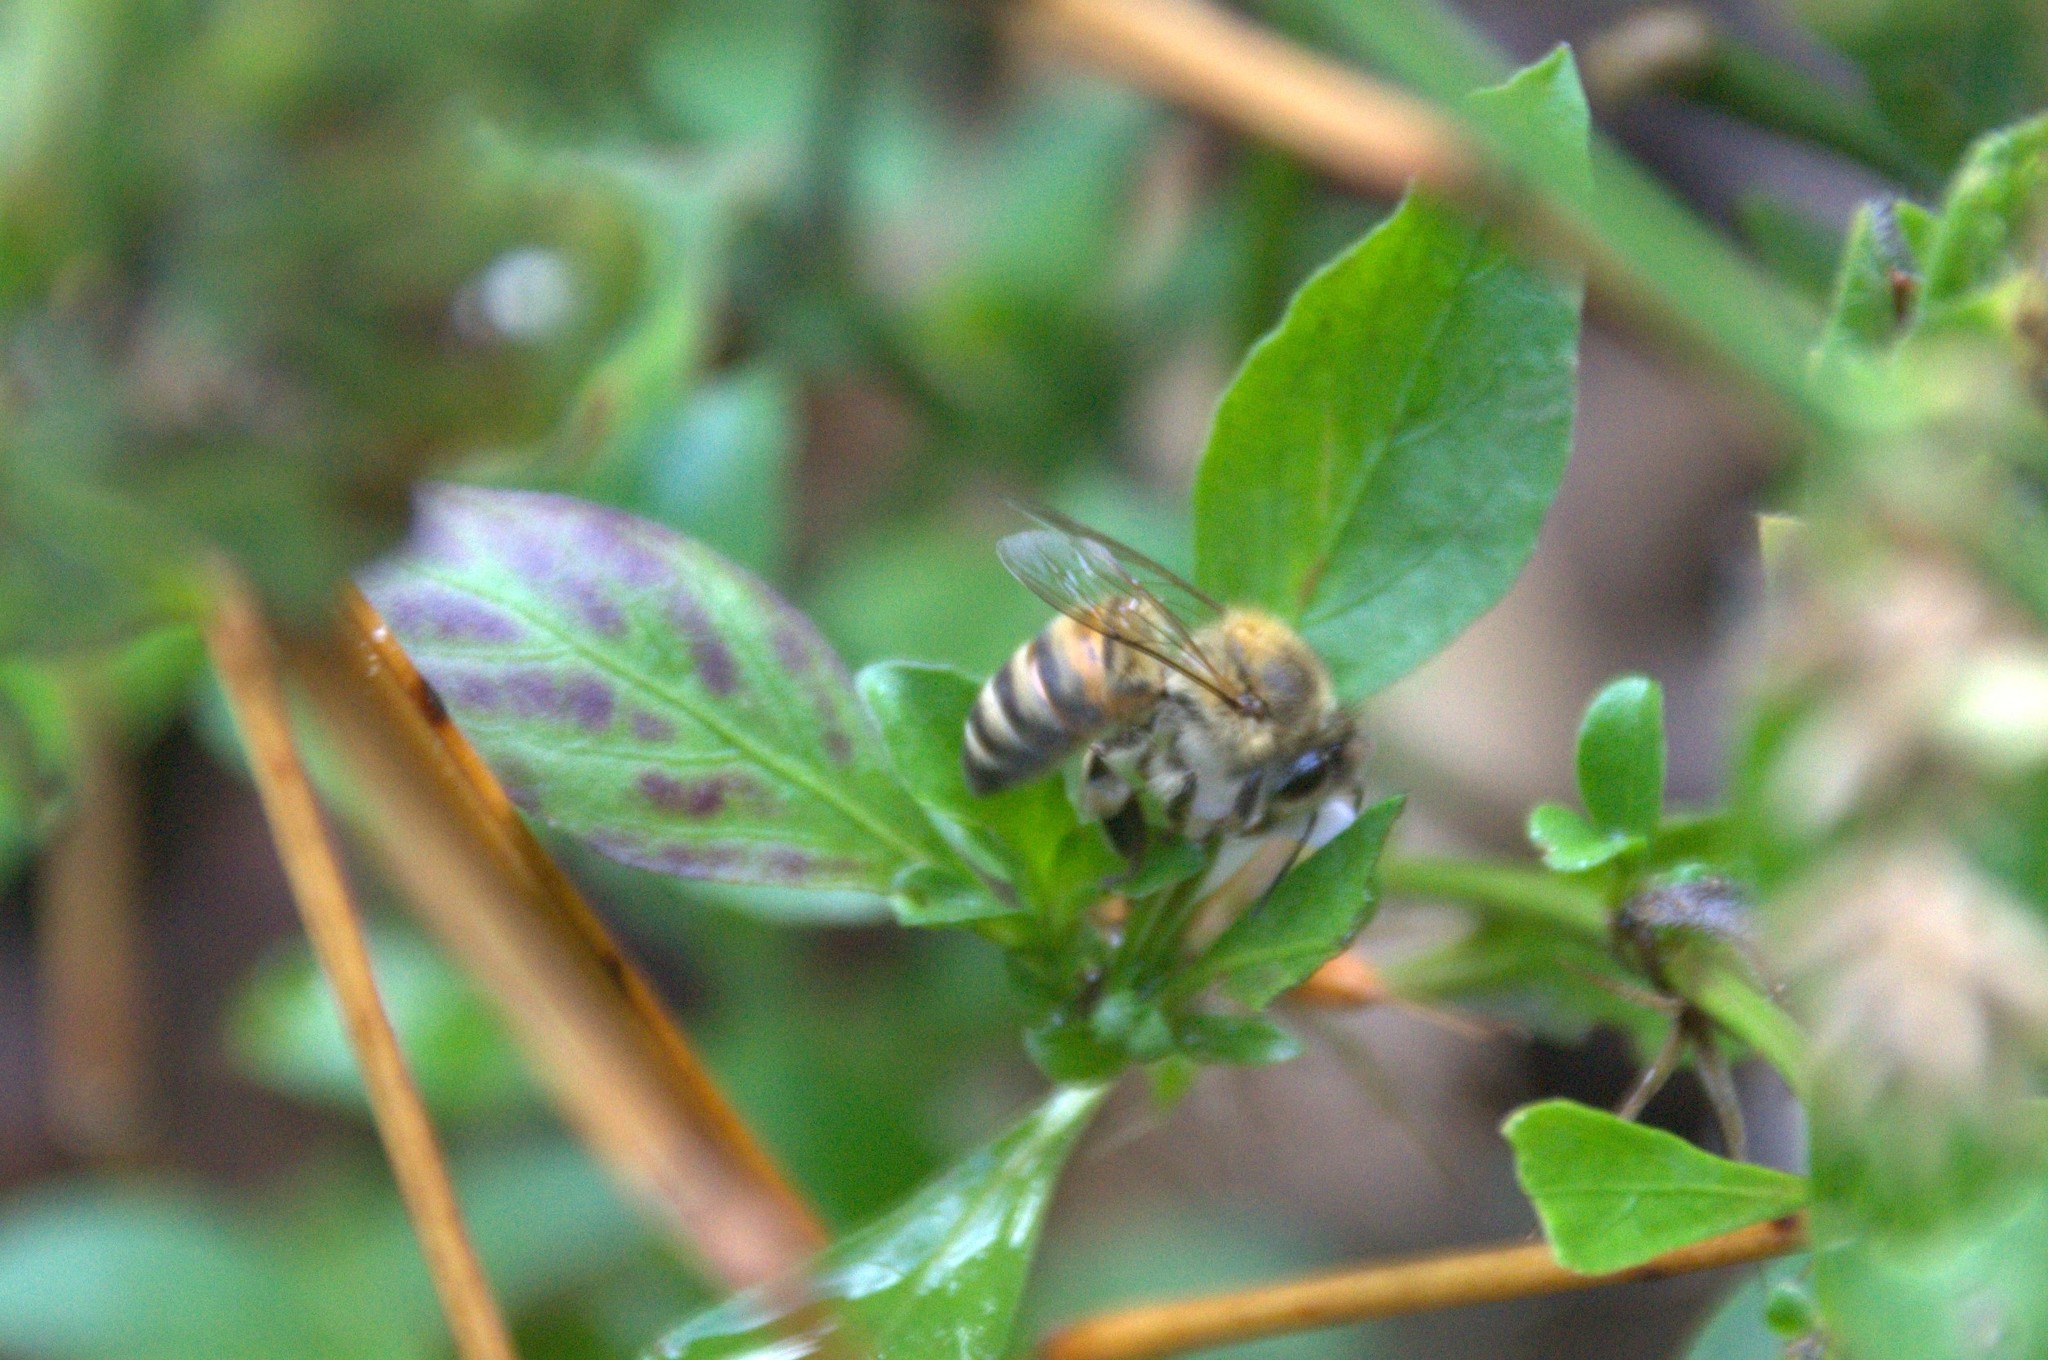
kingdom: Animalia
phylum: Arthropoda
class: Insecta
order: Hymenoptera
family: Apidae
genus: Apis
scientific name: Apis mellifera
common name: Honey bee
